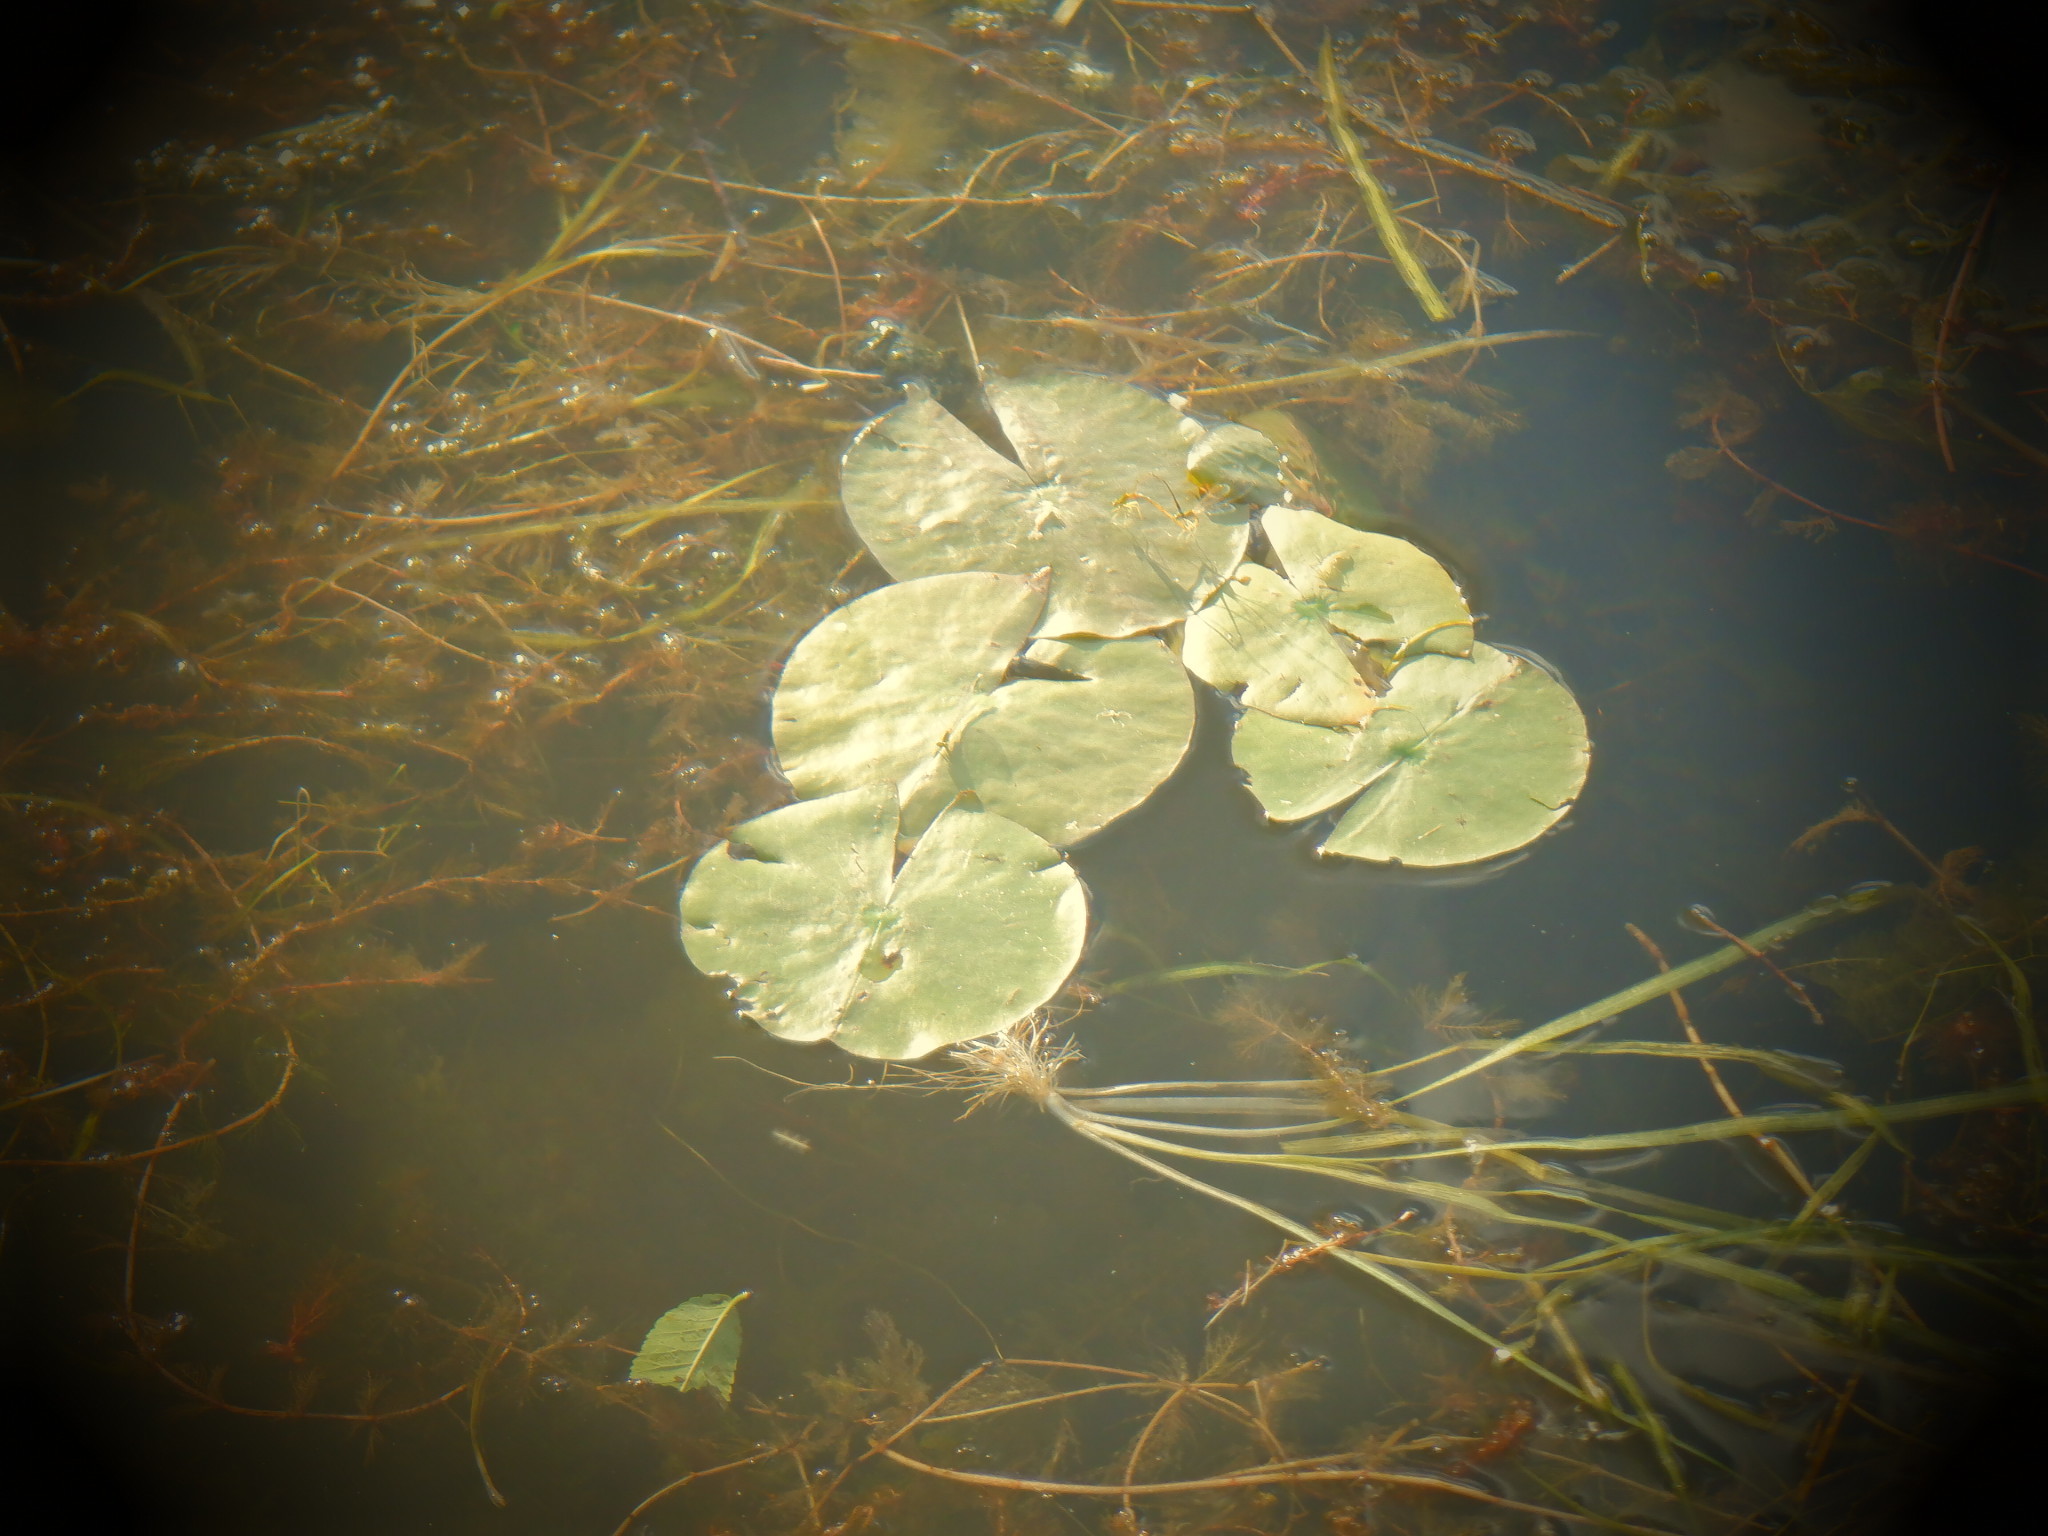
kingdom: Animalia
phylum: Arthropoda
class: Insecta
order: Odonata
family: Coenagrionidae
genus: Enallagma
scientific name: Enallagma vesperum
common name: Vesper bluet
